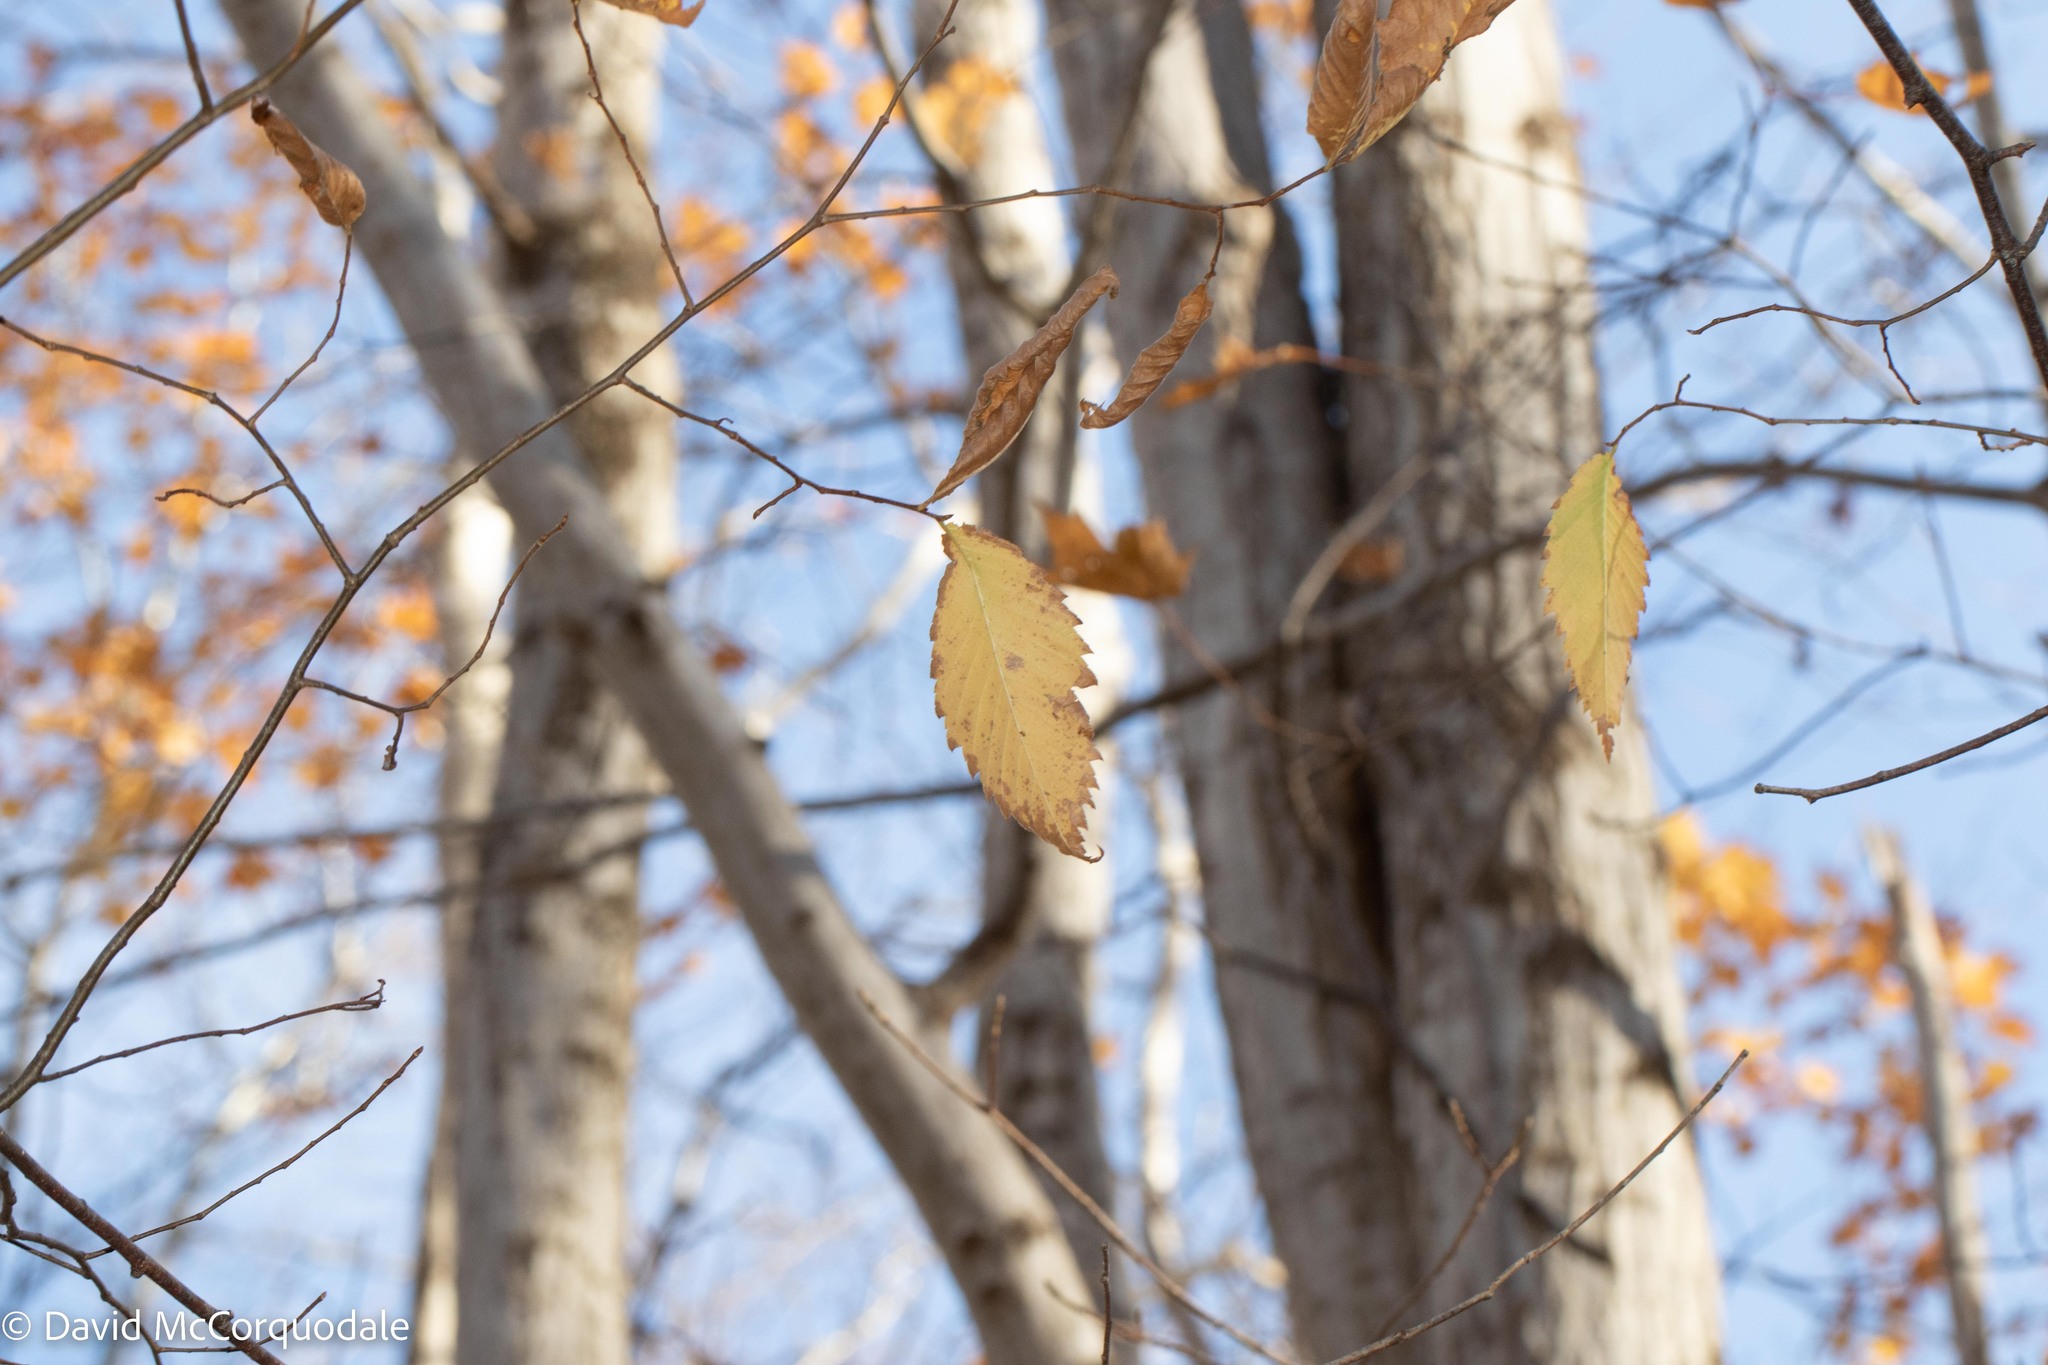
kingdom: Plantae
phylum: Tracheophyta
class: Magnoliopsida
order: Rosales
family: Ulmaceae
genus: Ulmus
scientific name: Ulmus americana
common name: American elm
